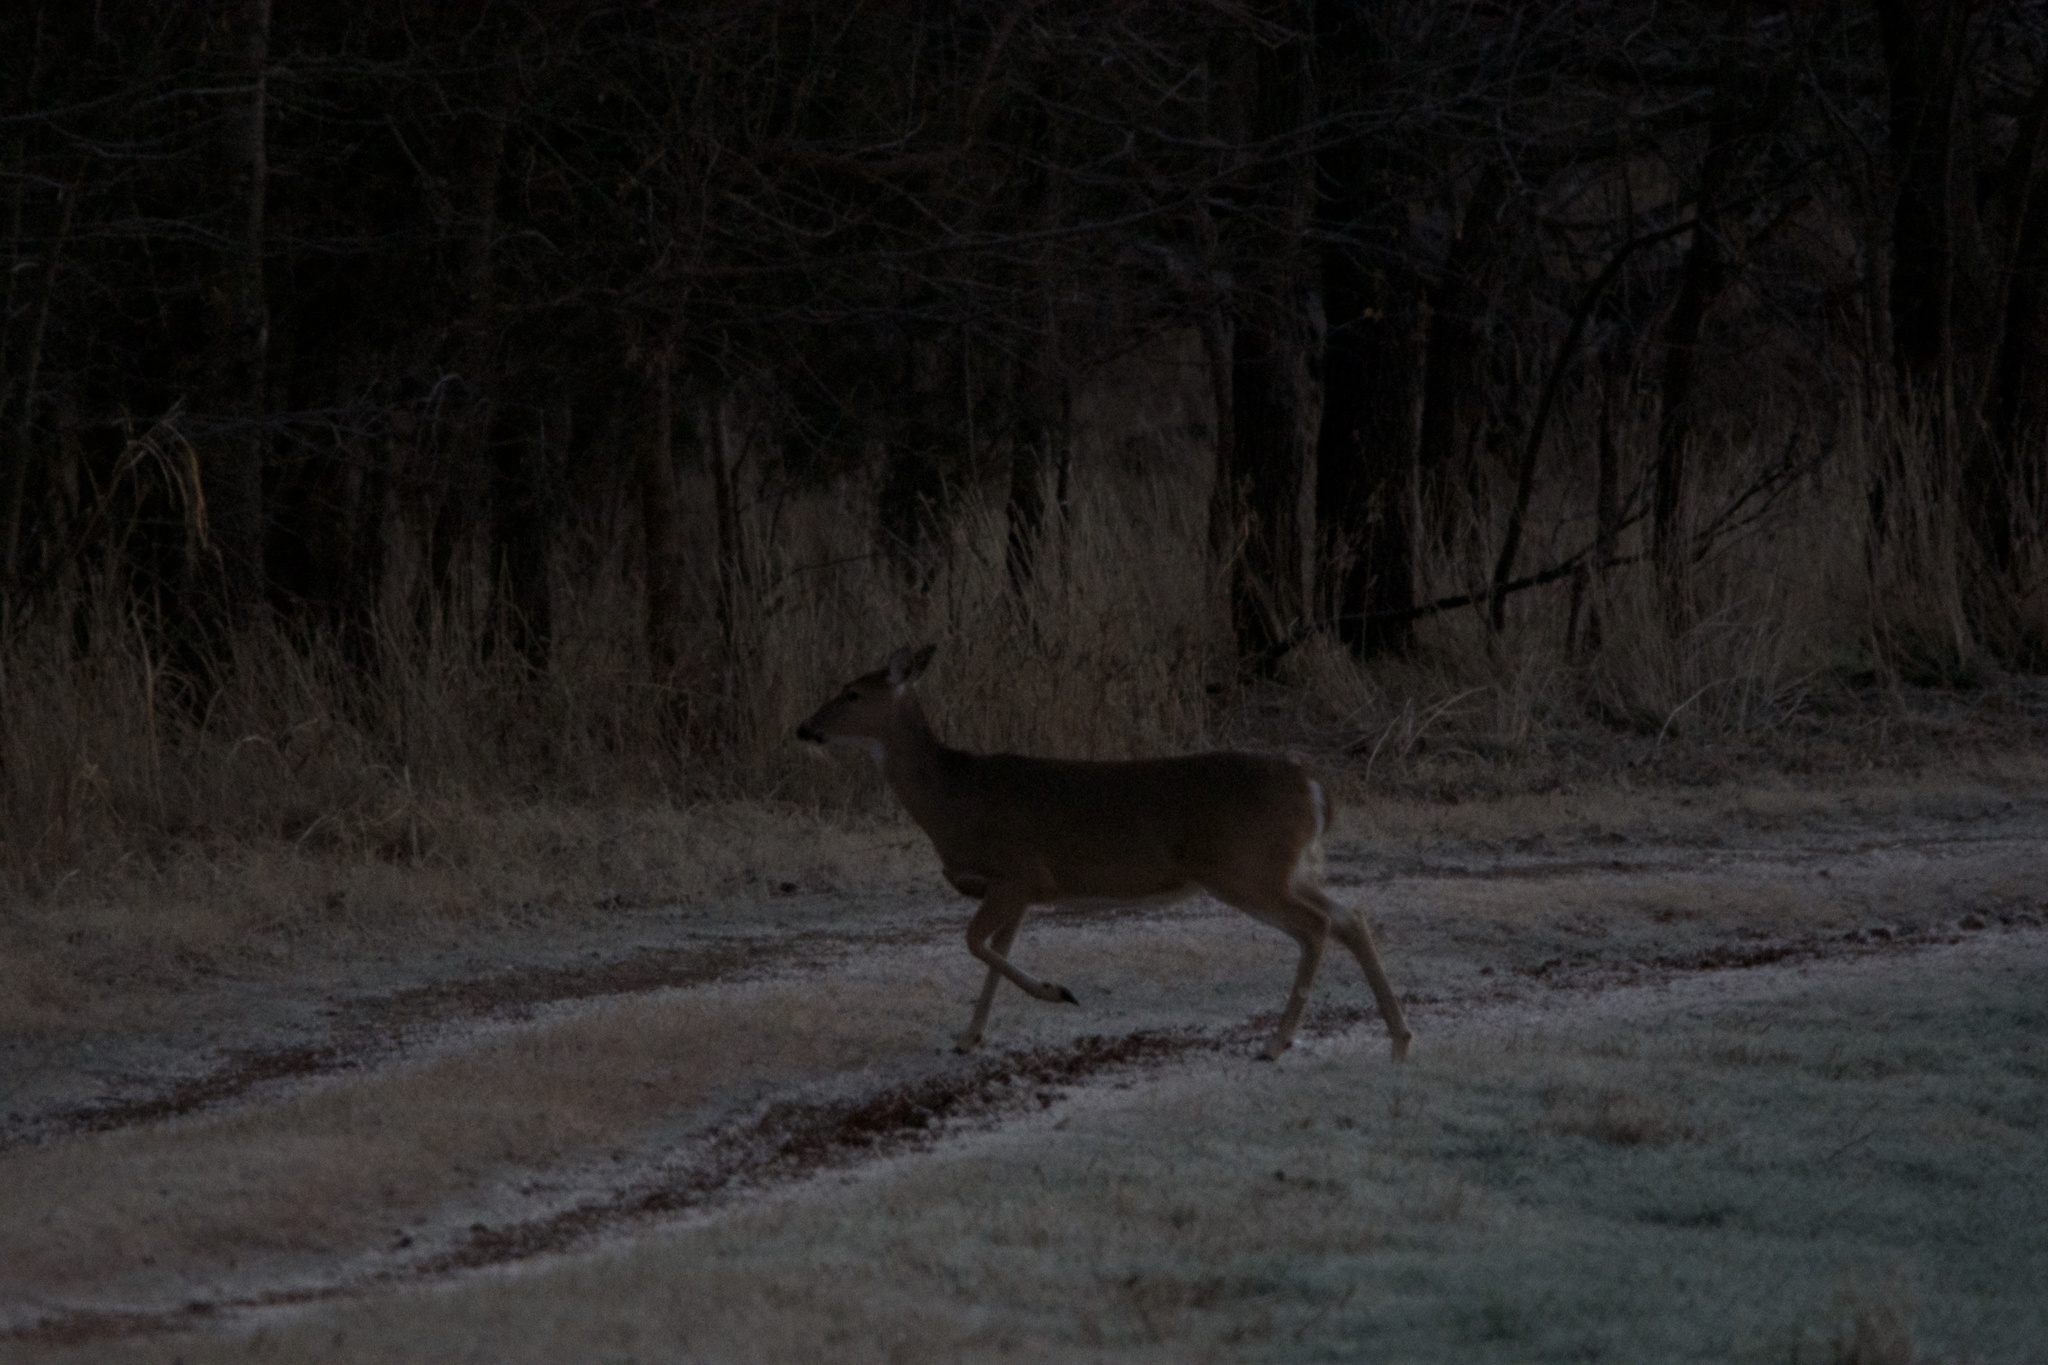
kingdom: Animalia
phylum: Chordata
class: Mammalia
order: Artiodactyla
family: Cervidae
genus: Odocoileus
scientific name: Odocoileus virginianus
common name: White-tailed deer
